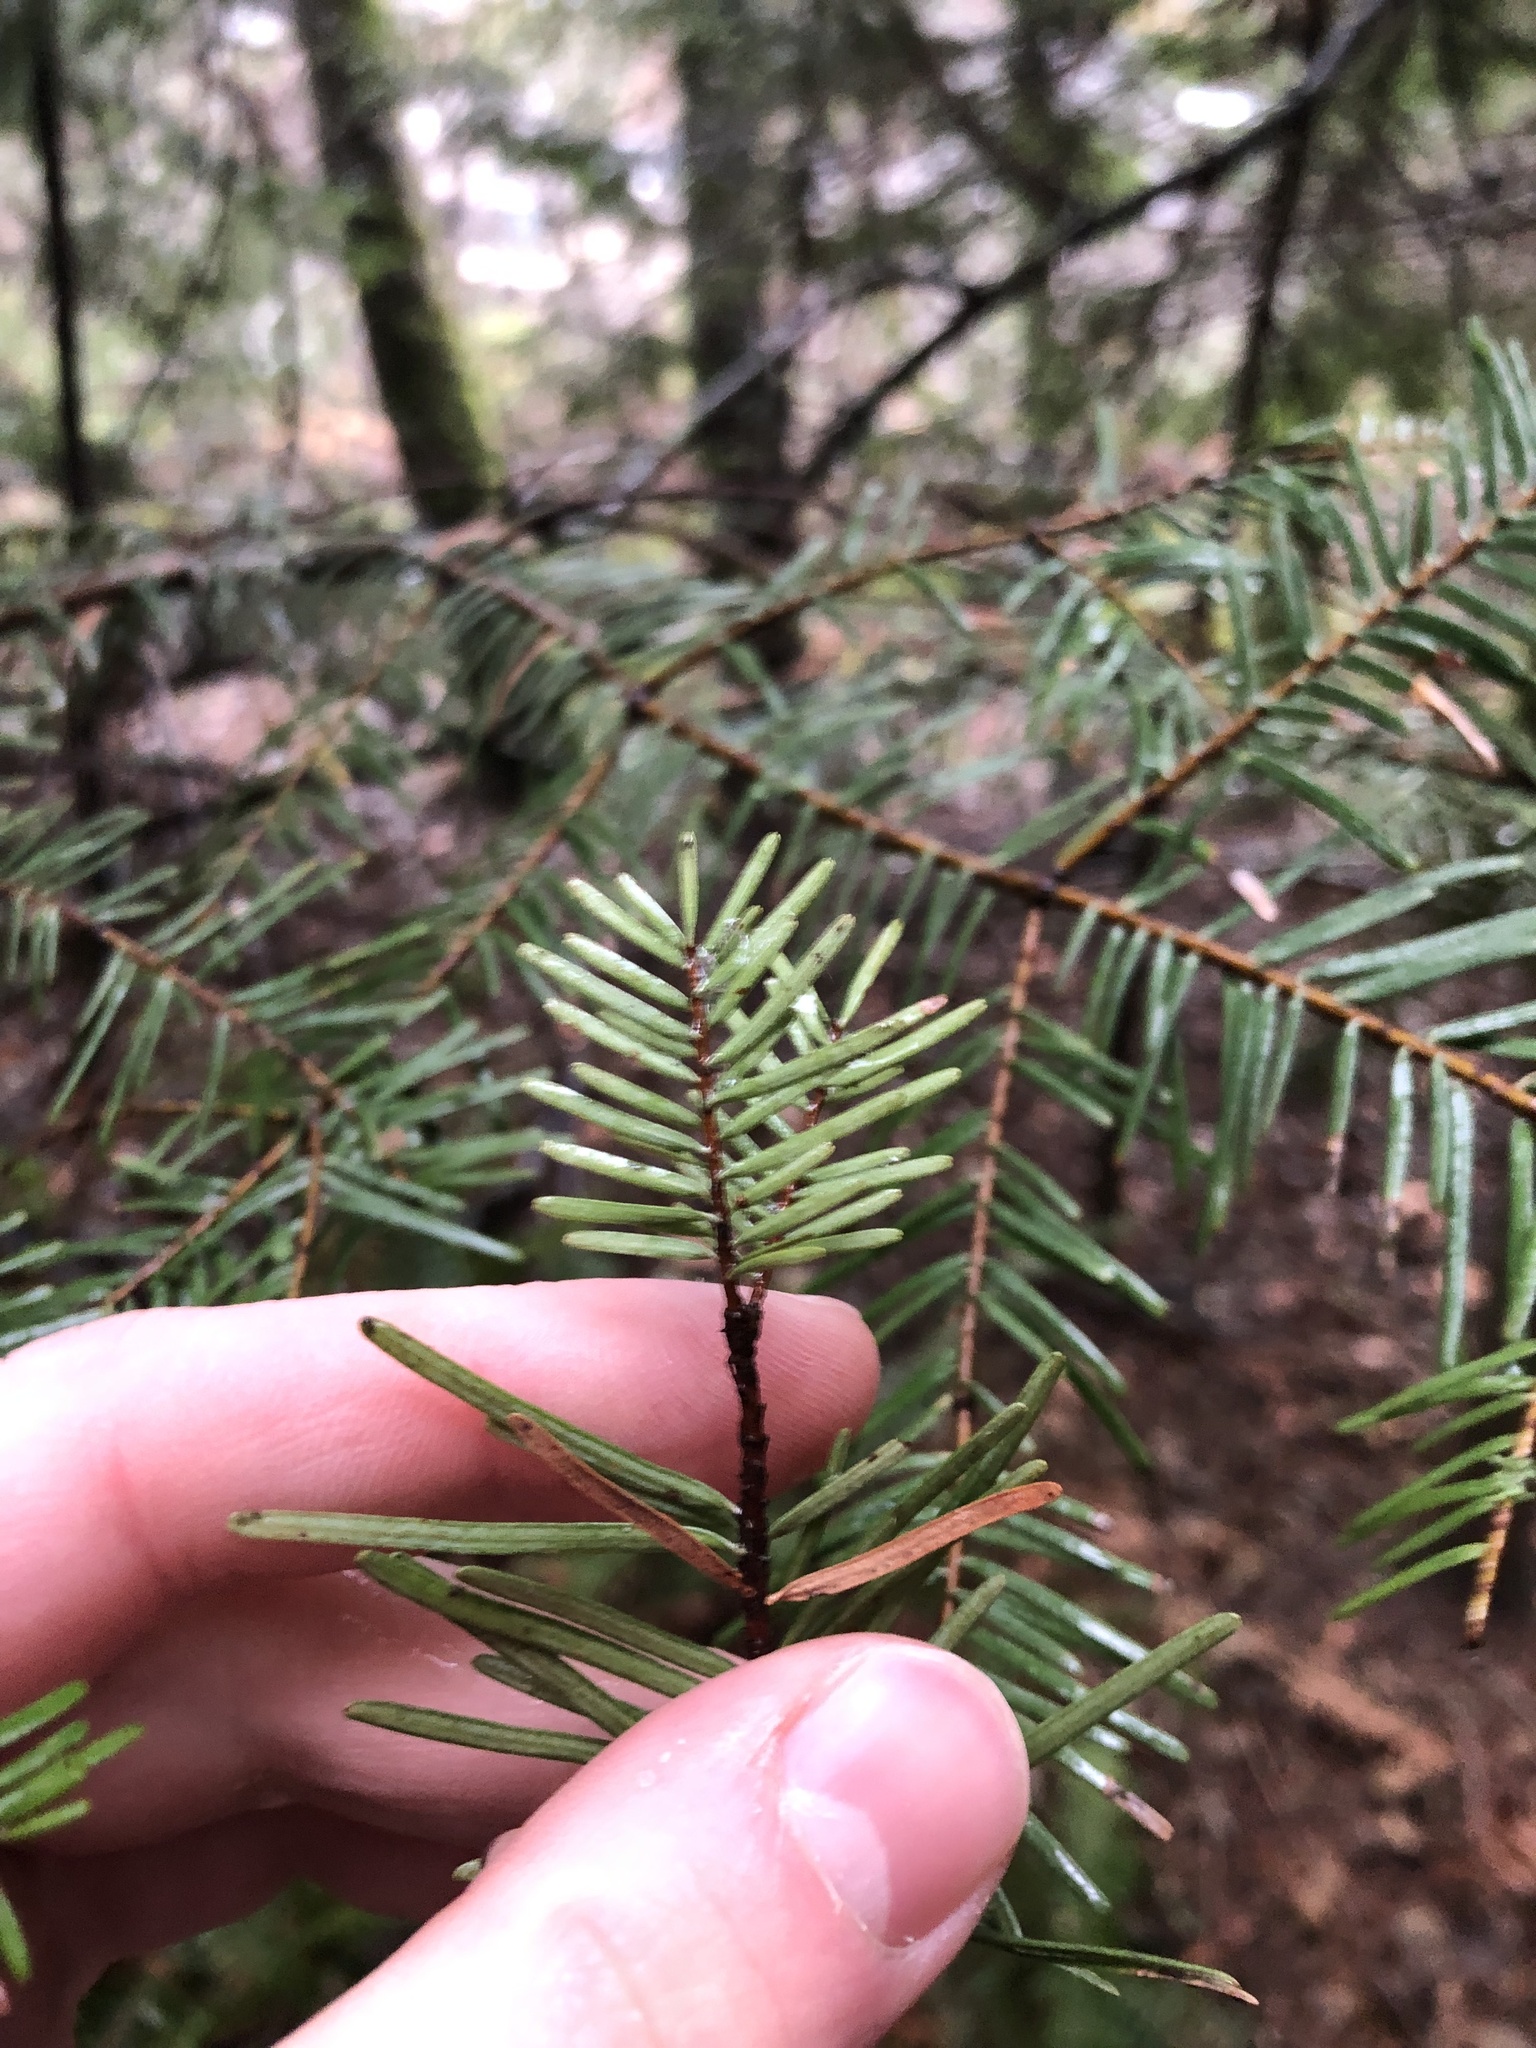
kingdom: Plantae
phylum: Tracheophyta
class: Pinopsida
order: Pinales
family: Pinaceae
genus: Abies
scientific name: Abies grandis
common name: Giant fir
